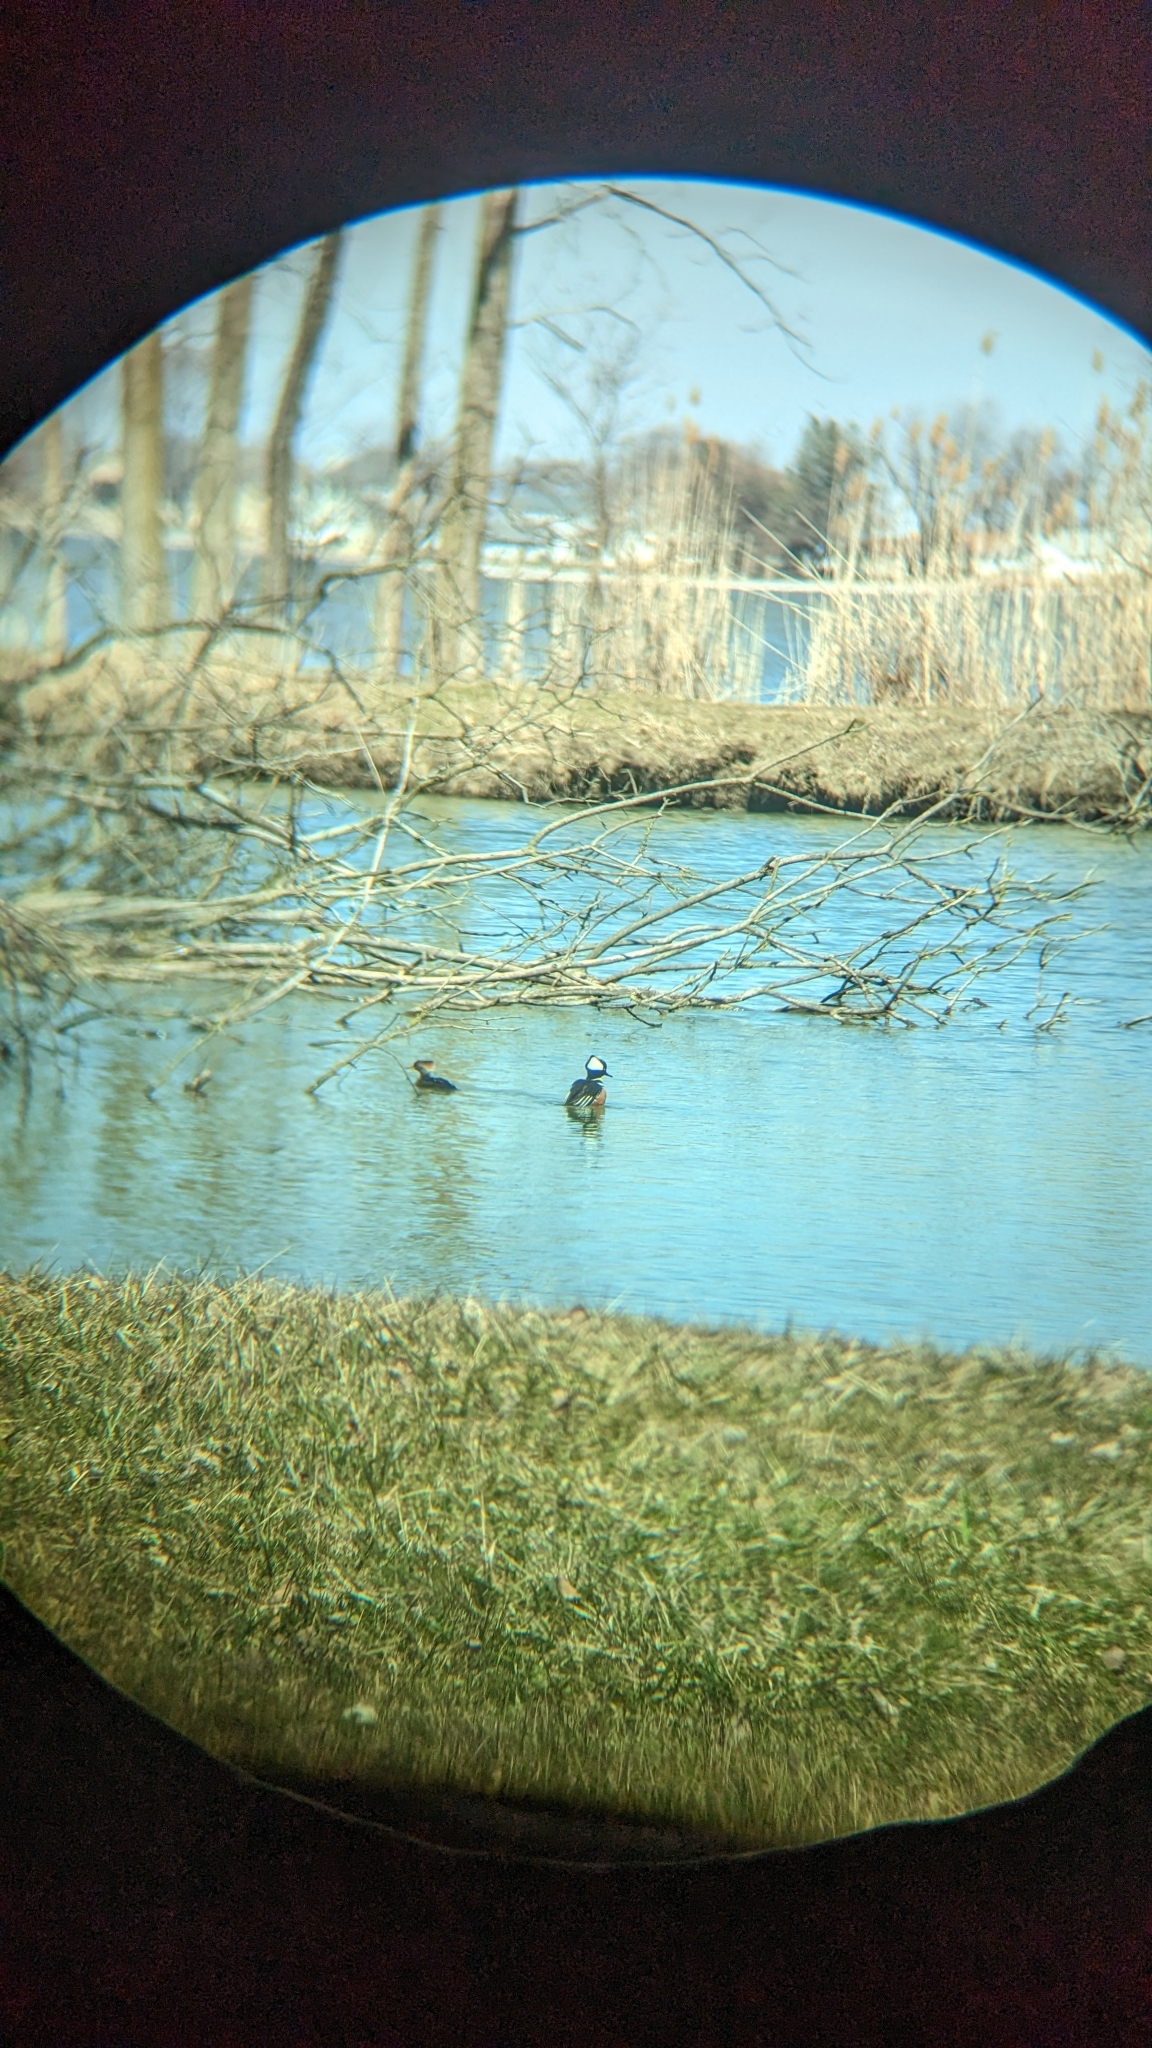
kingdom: Animalia
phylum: Chordata
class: Aves
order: Anseriformes
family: Anatidae
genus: Lophodytes
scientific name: Lophodytes cucullatus
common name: Hooded merganser
